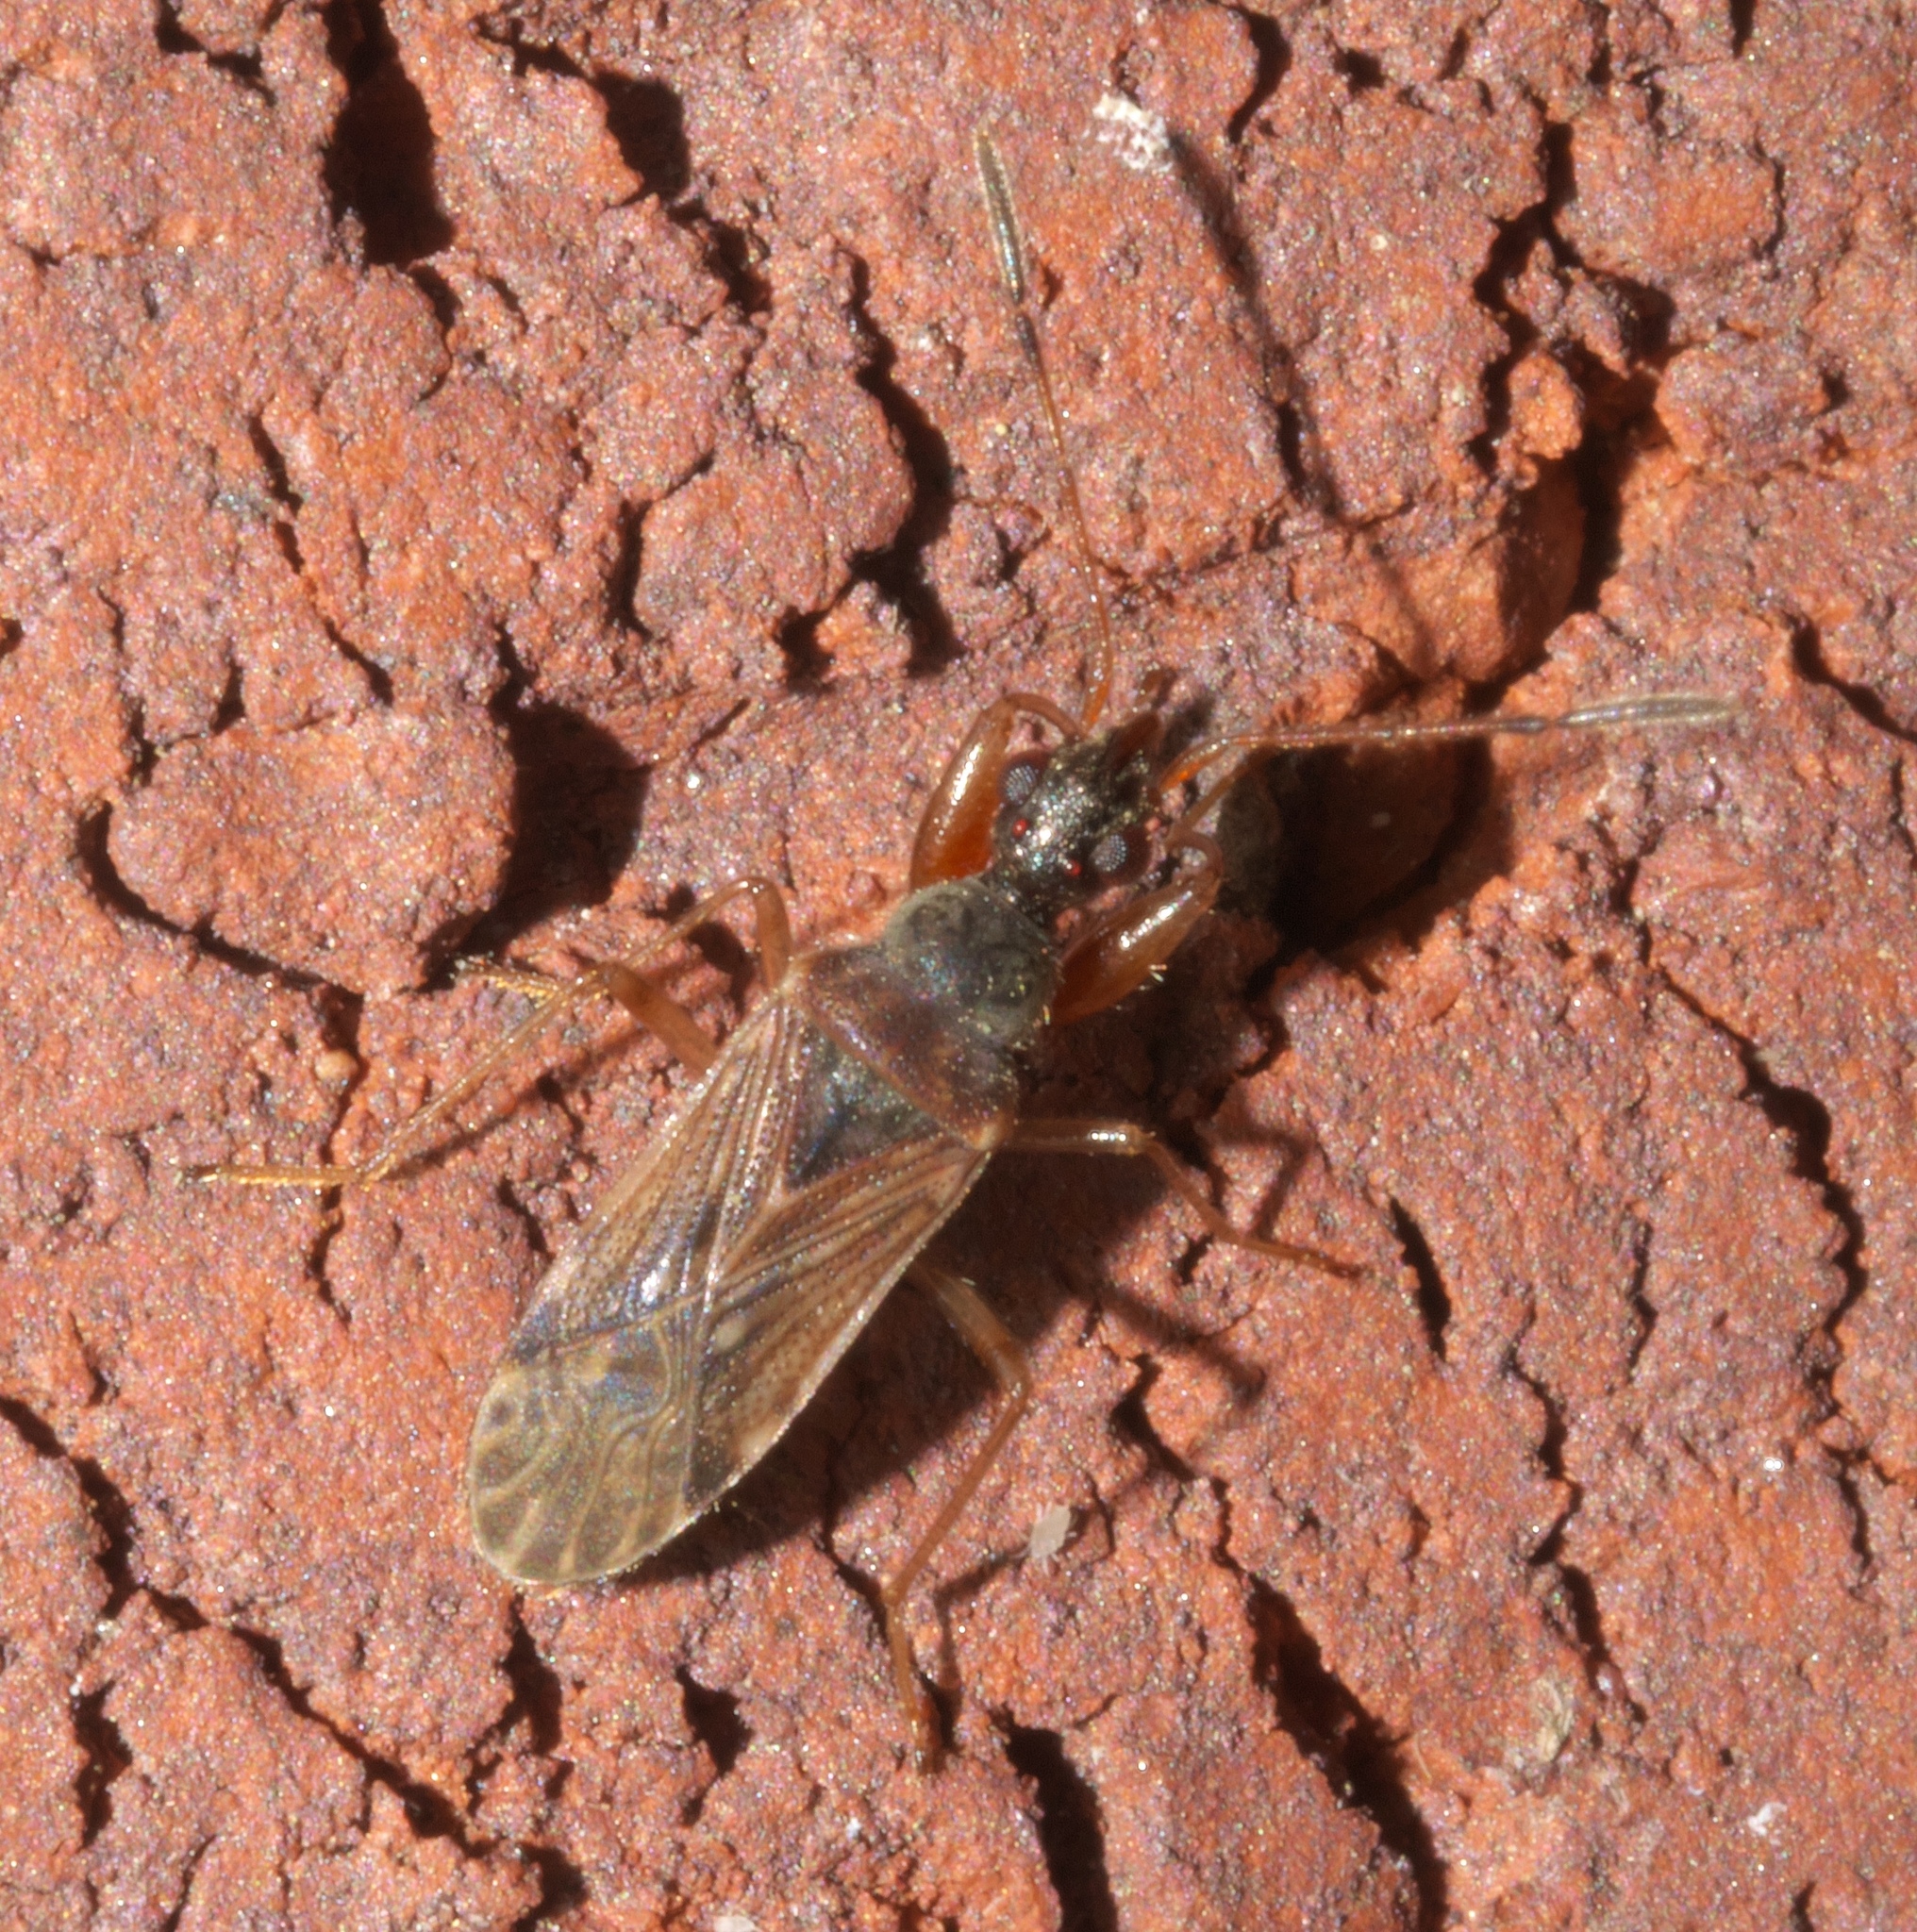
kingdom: Animalia
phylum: Arthropoda
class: Insecta
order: Hemiptera
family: Rhyparochromidae
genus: Heraeus
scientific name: Heraeus plebejus
